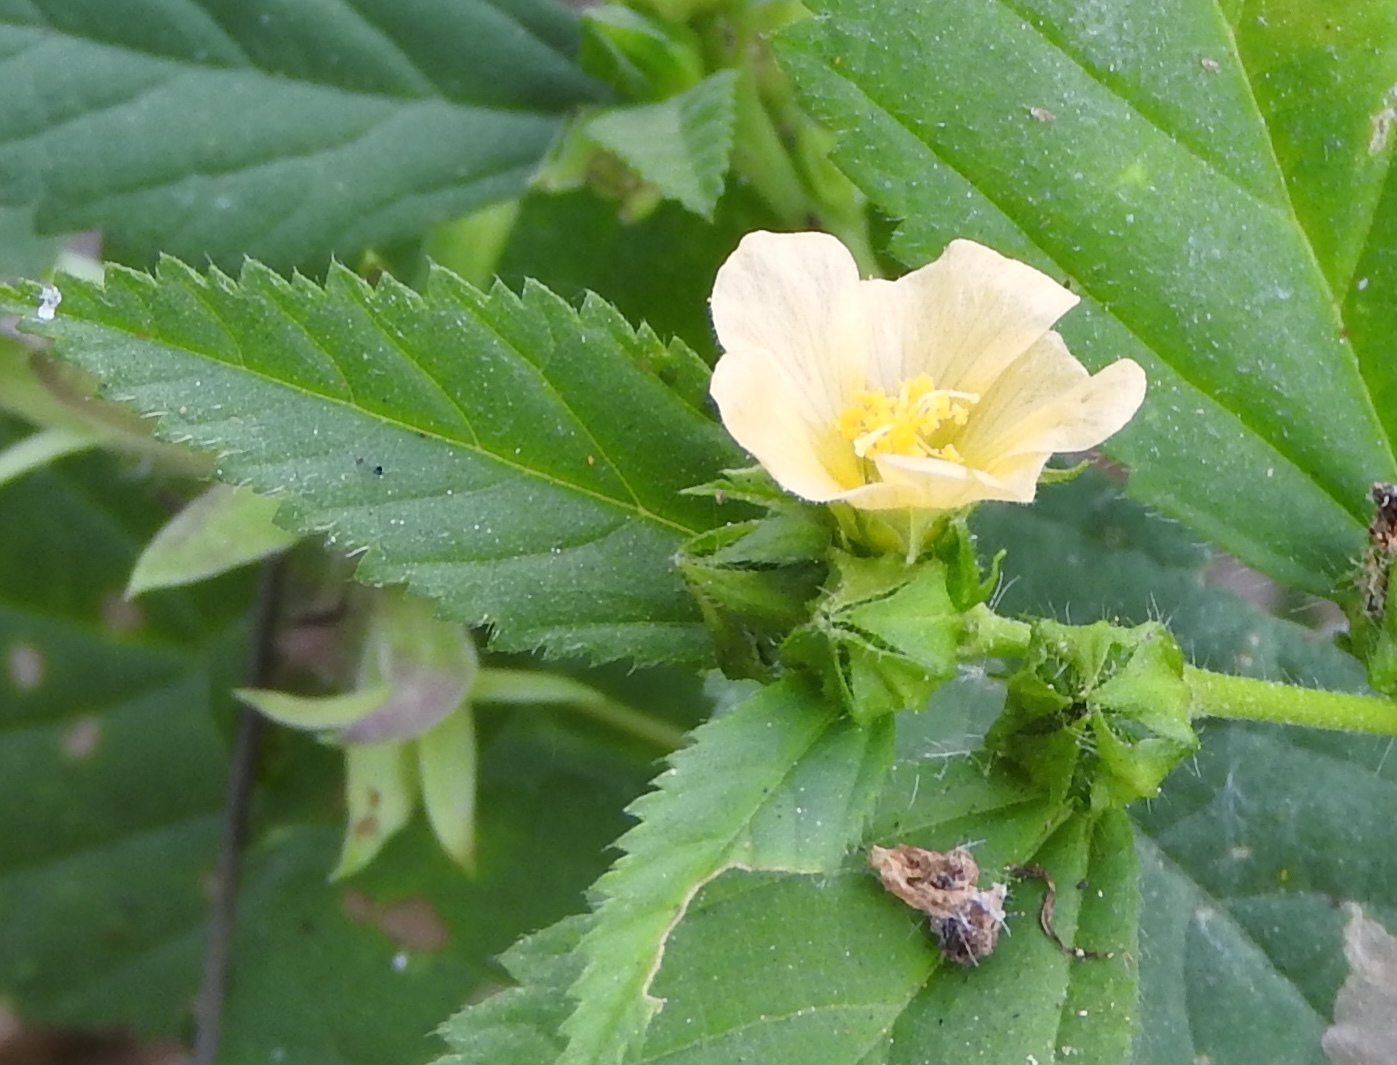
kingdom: Plantae
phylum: Tracheophyta
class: Magnoliopsida
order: Malvales
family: Malvaceae
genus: Malvastrum
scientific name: Malvastrum coromandelianum
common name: Threelobe false mallow
